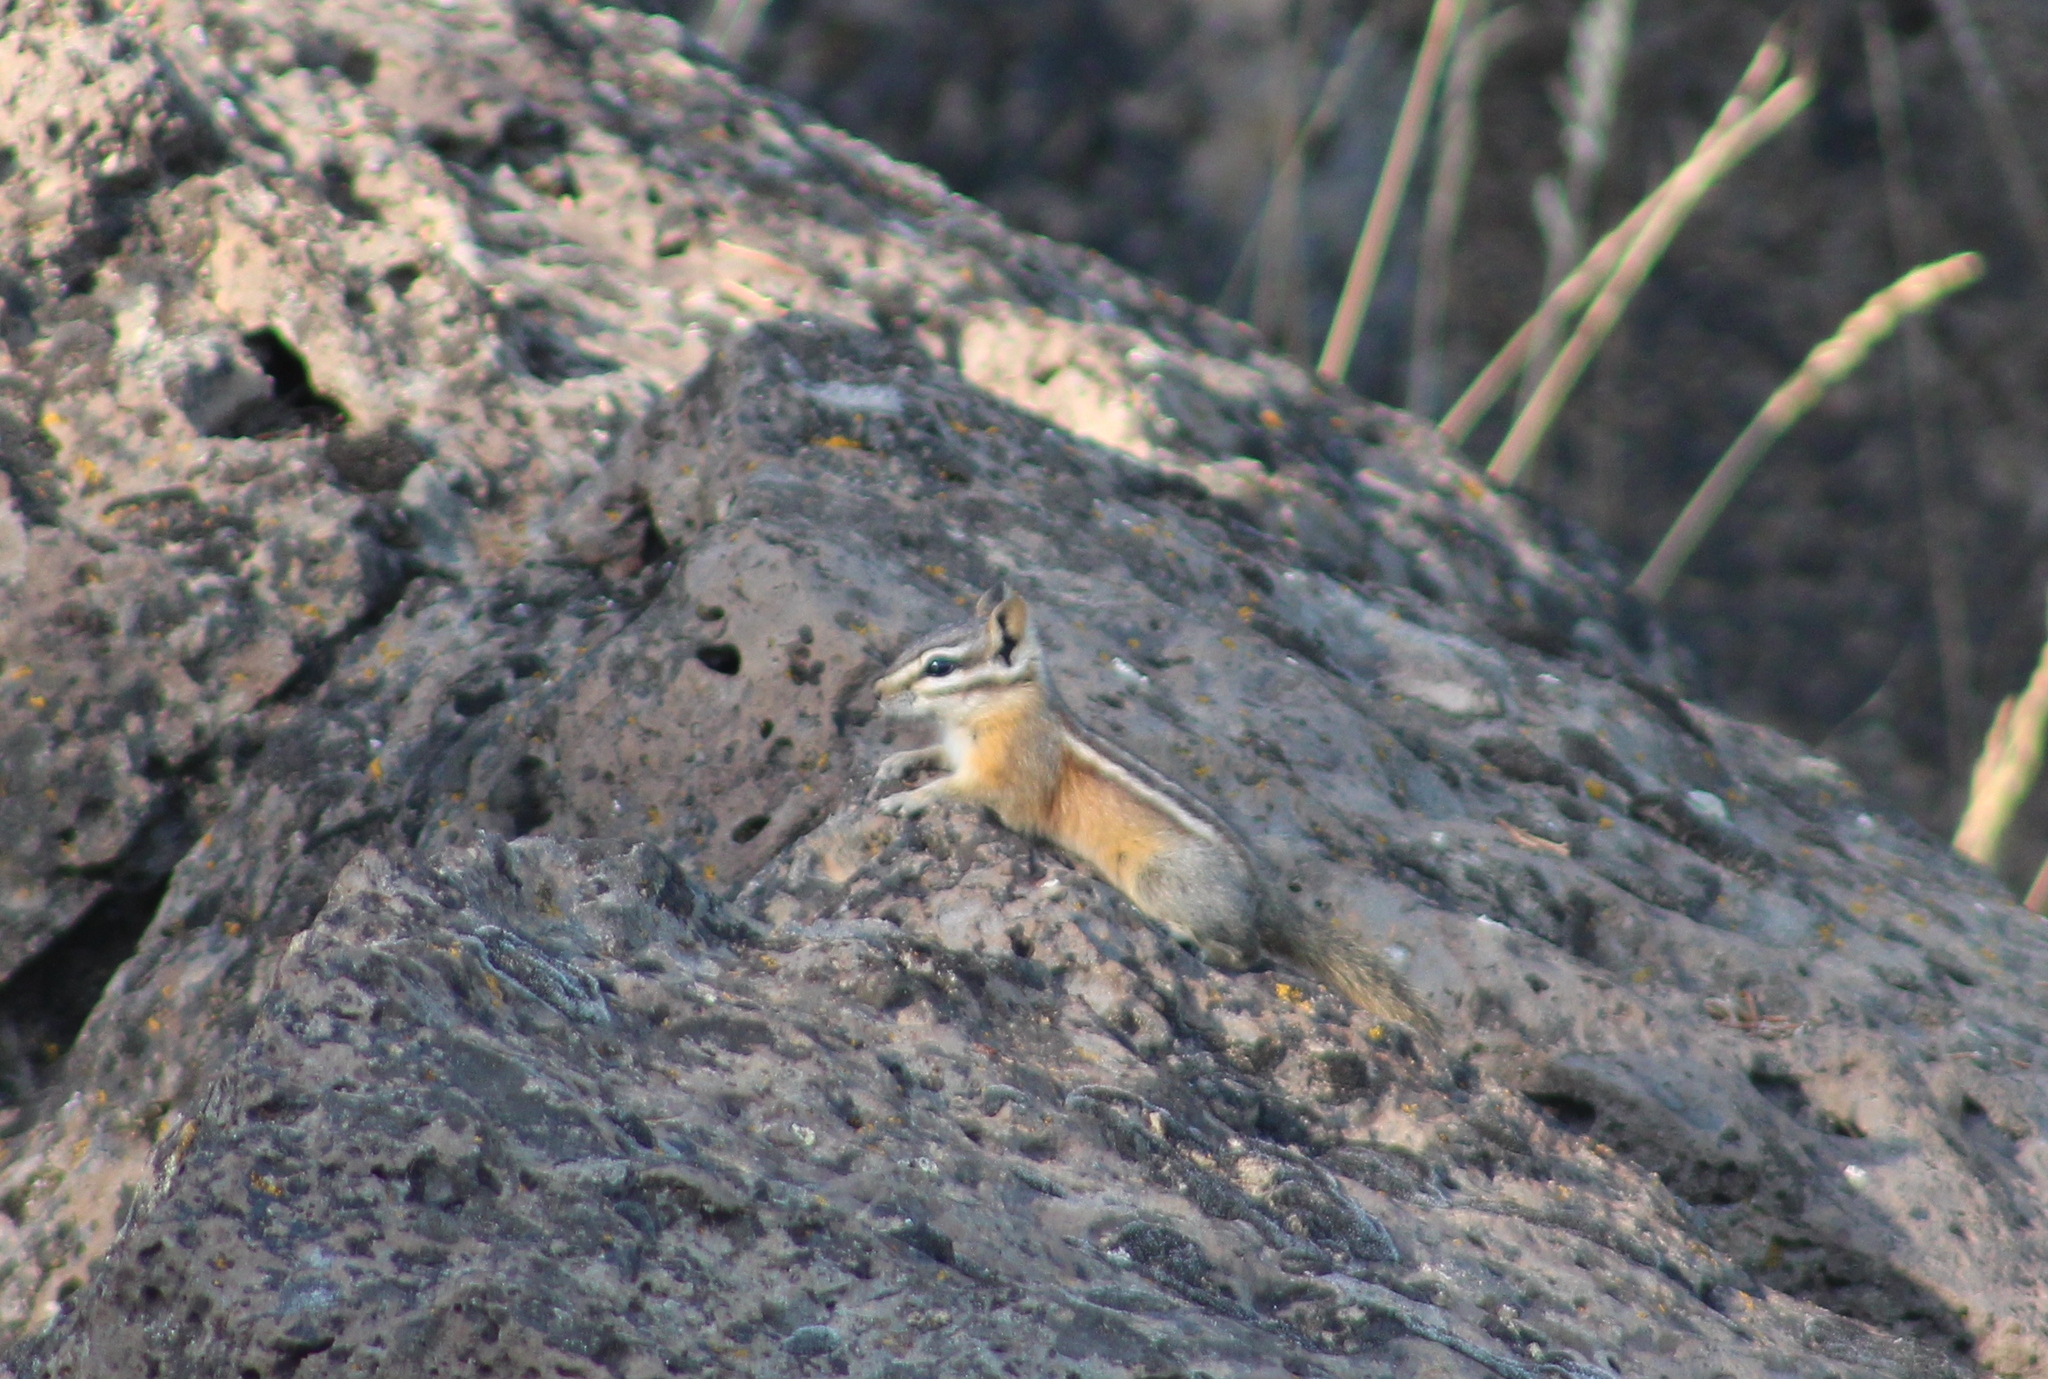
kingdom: Animalia
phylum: Chordata
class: Mammalia
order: Rodentia
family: Sciuridae
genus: Tamias
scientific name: Tamias amoenus
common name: Yellow-pine chipmunk
